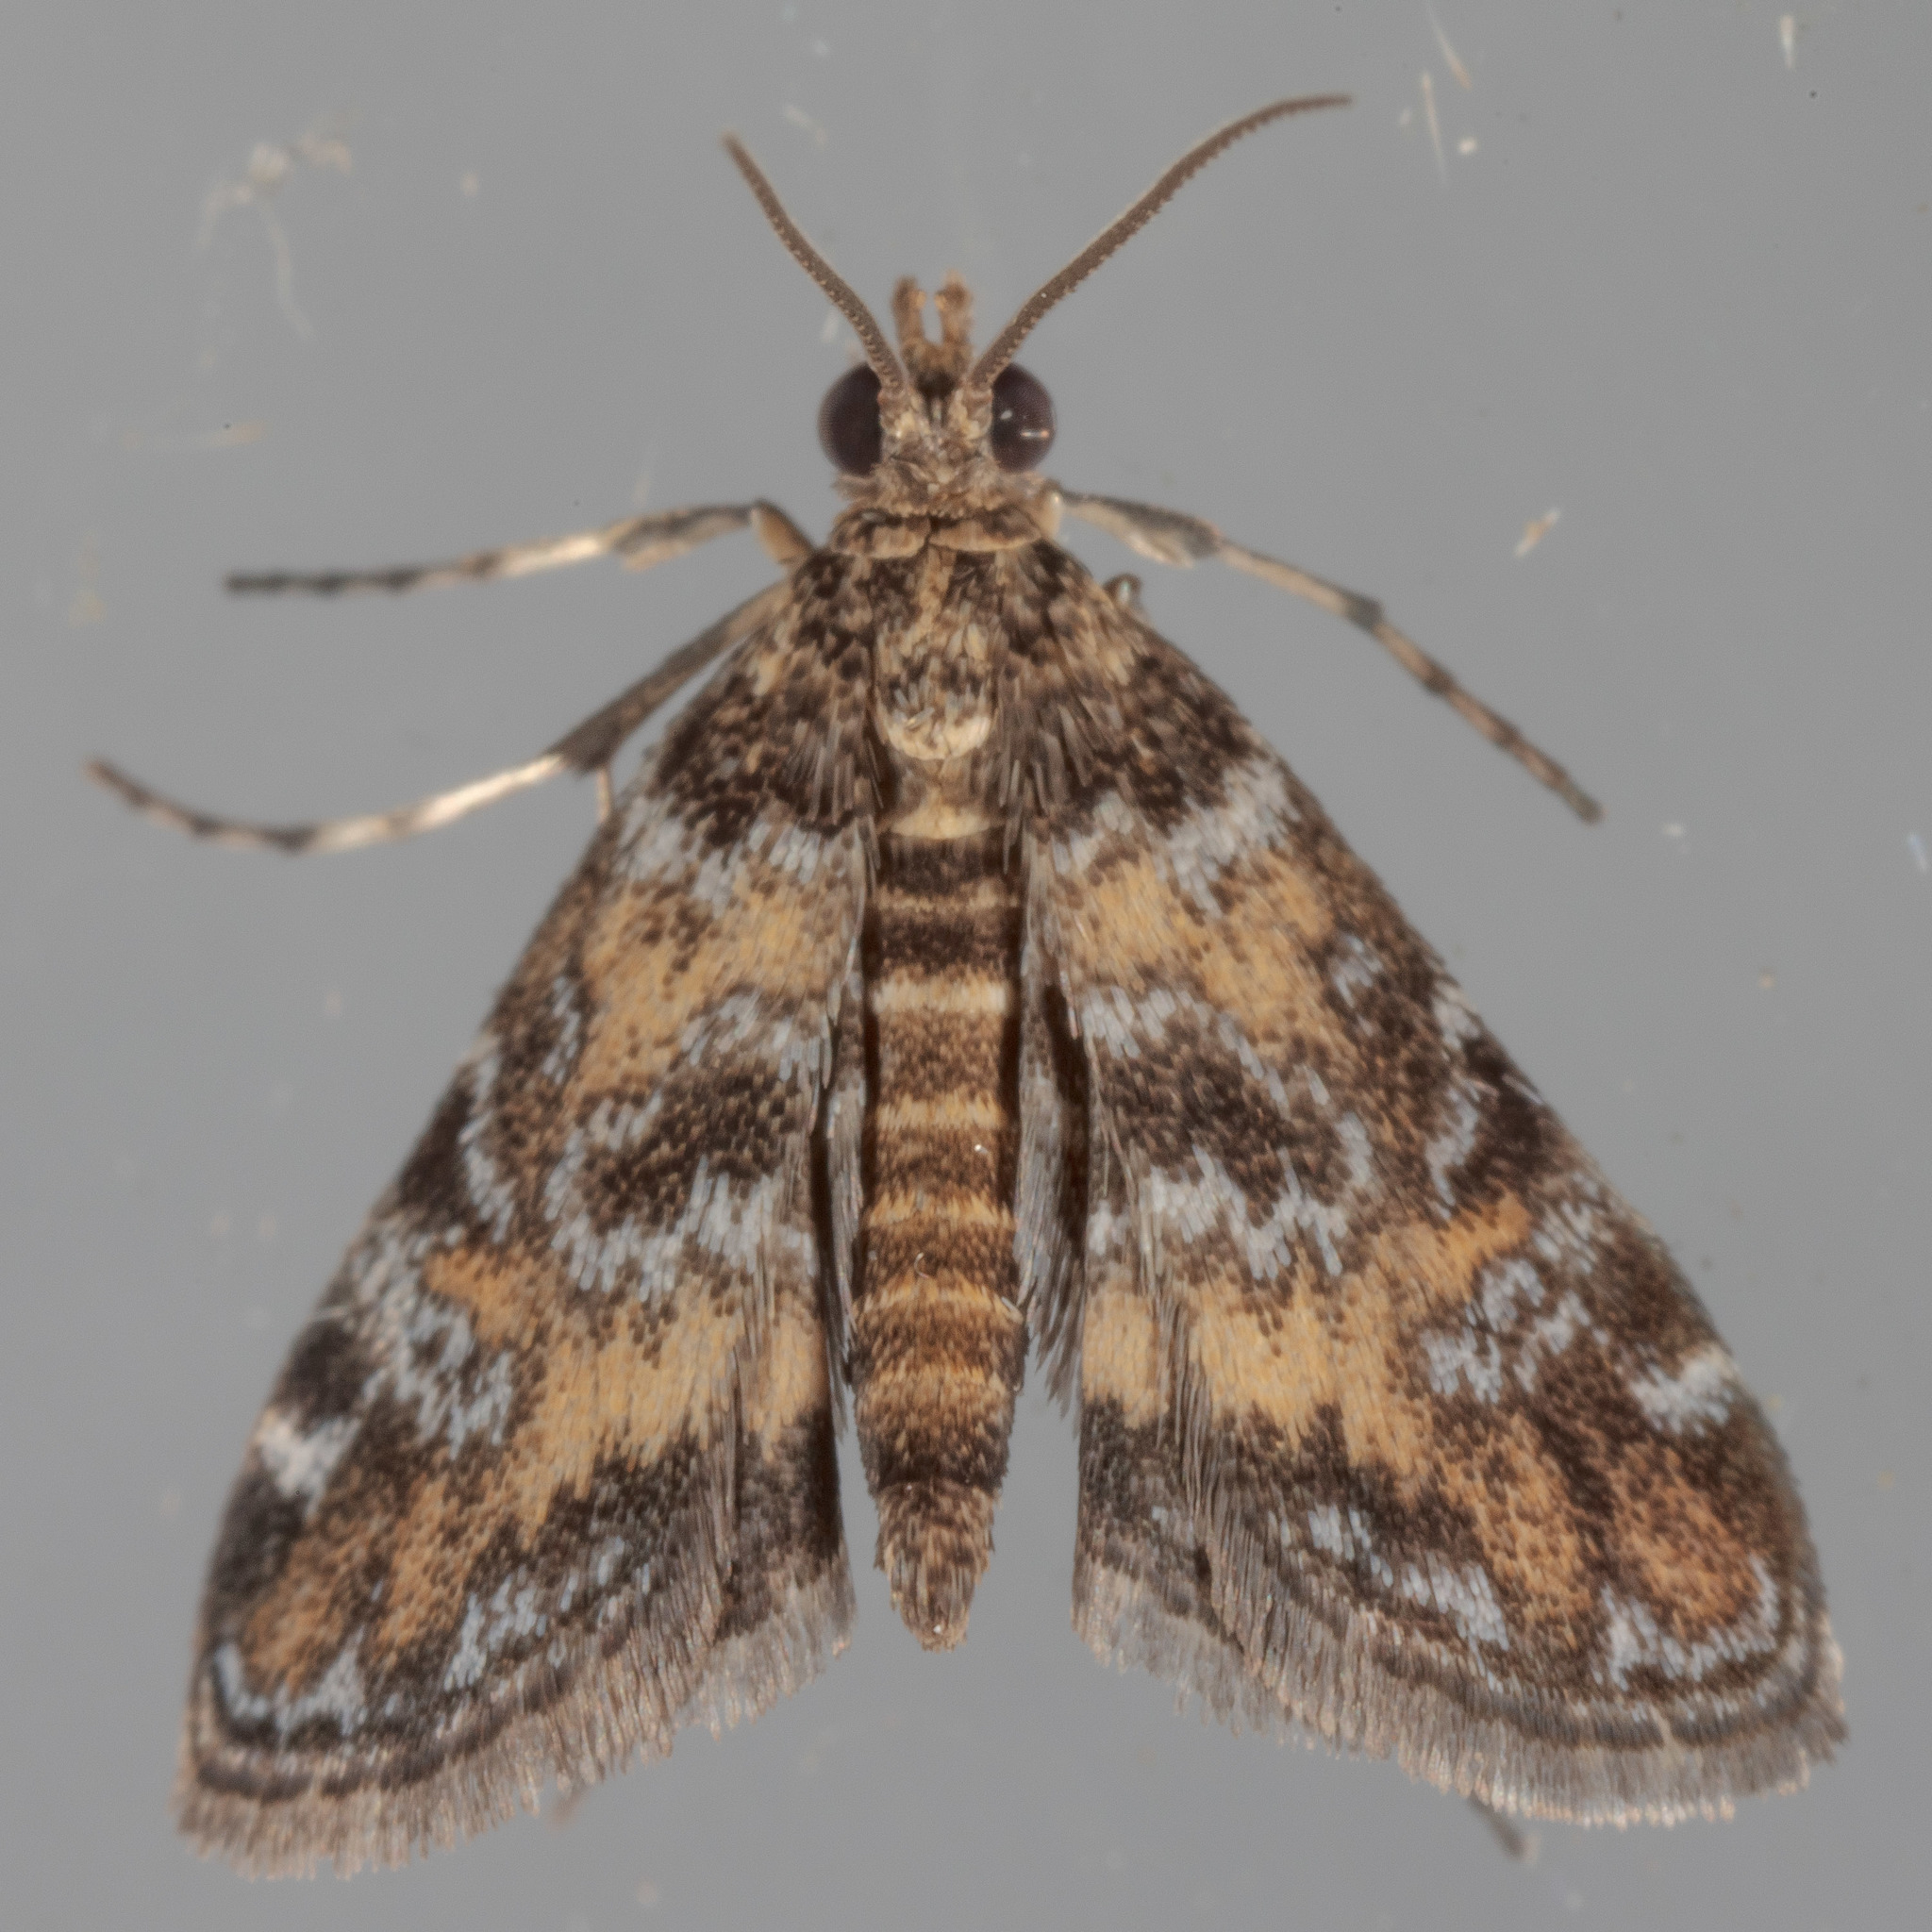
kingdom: Animalia
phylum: Arthropoda
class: Insecta
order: Lepidoptera
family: Crambidae
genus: Elophila
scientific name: Elophila obliteralis
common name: Waterlily leafcutter moth
